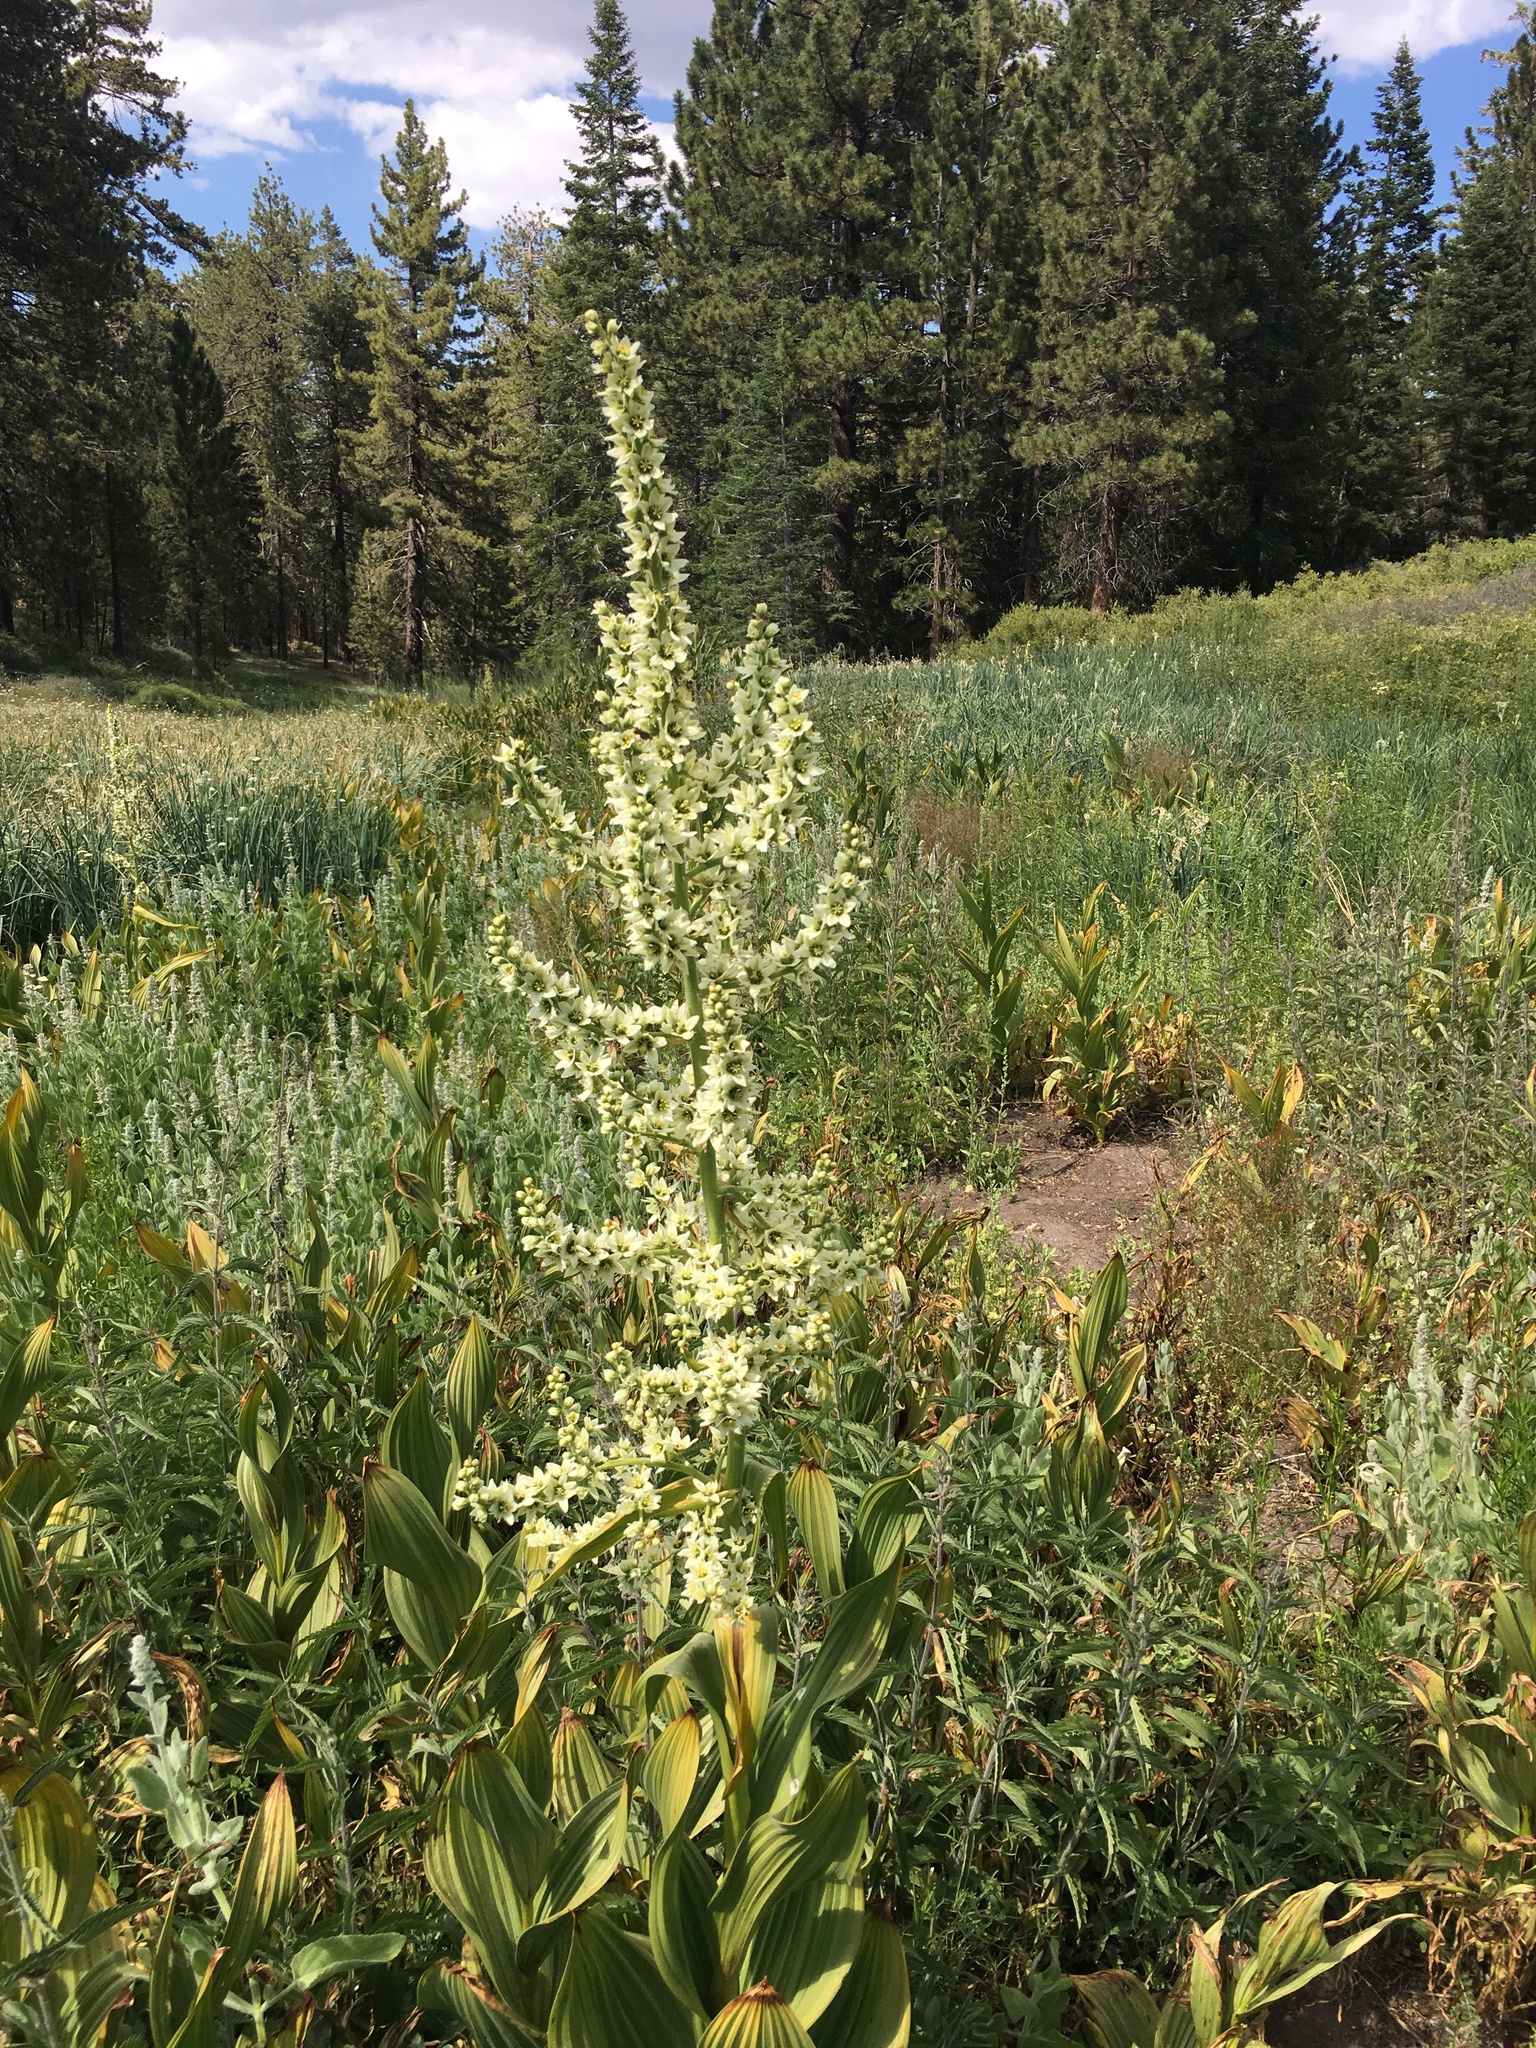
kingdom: Plantae
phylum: Tracheophyta
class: Liliopsida
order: Liliales
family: Melanthiaceae
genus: Veratrum
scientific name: Veratrum californicum
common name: California veratrum
